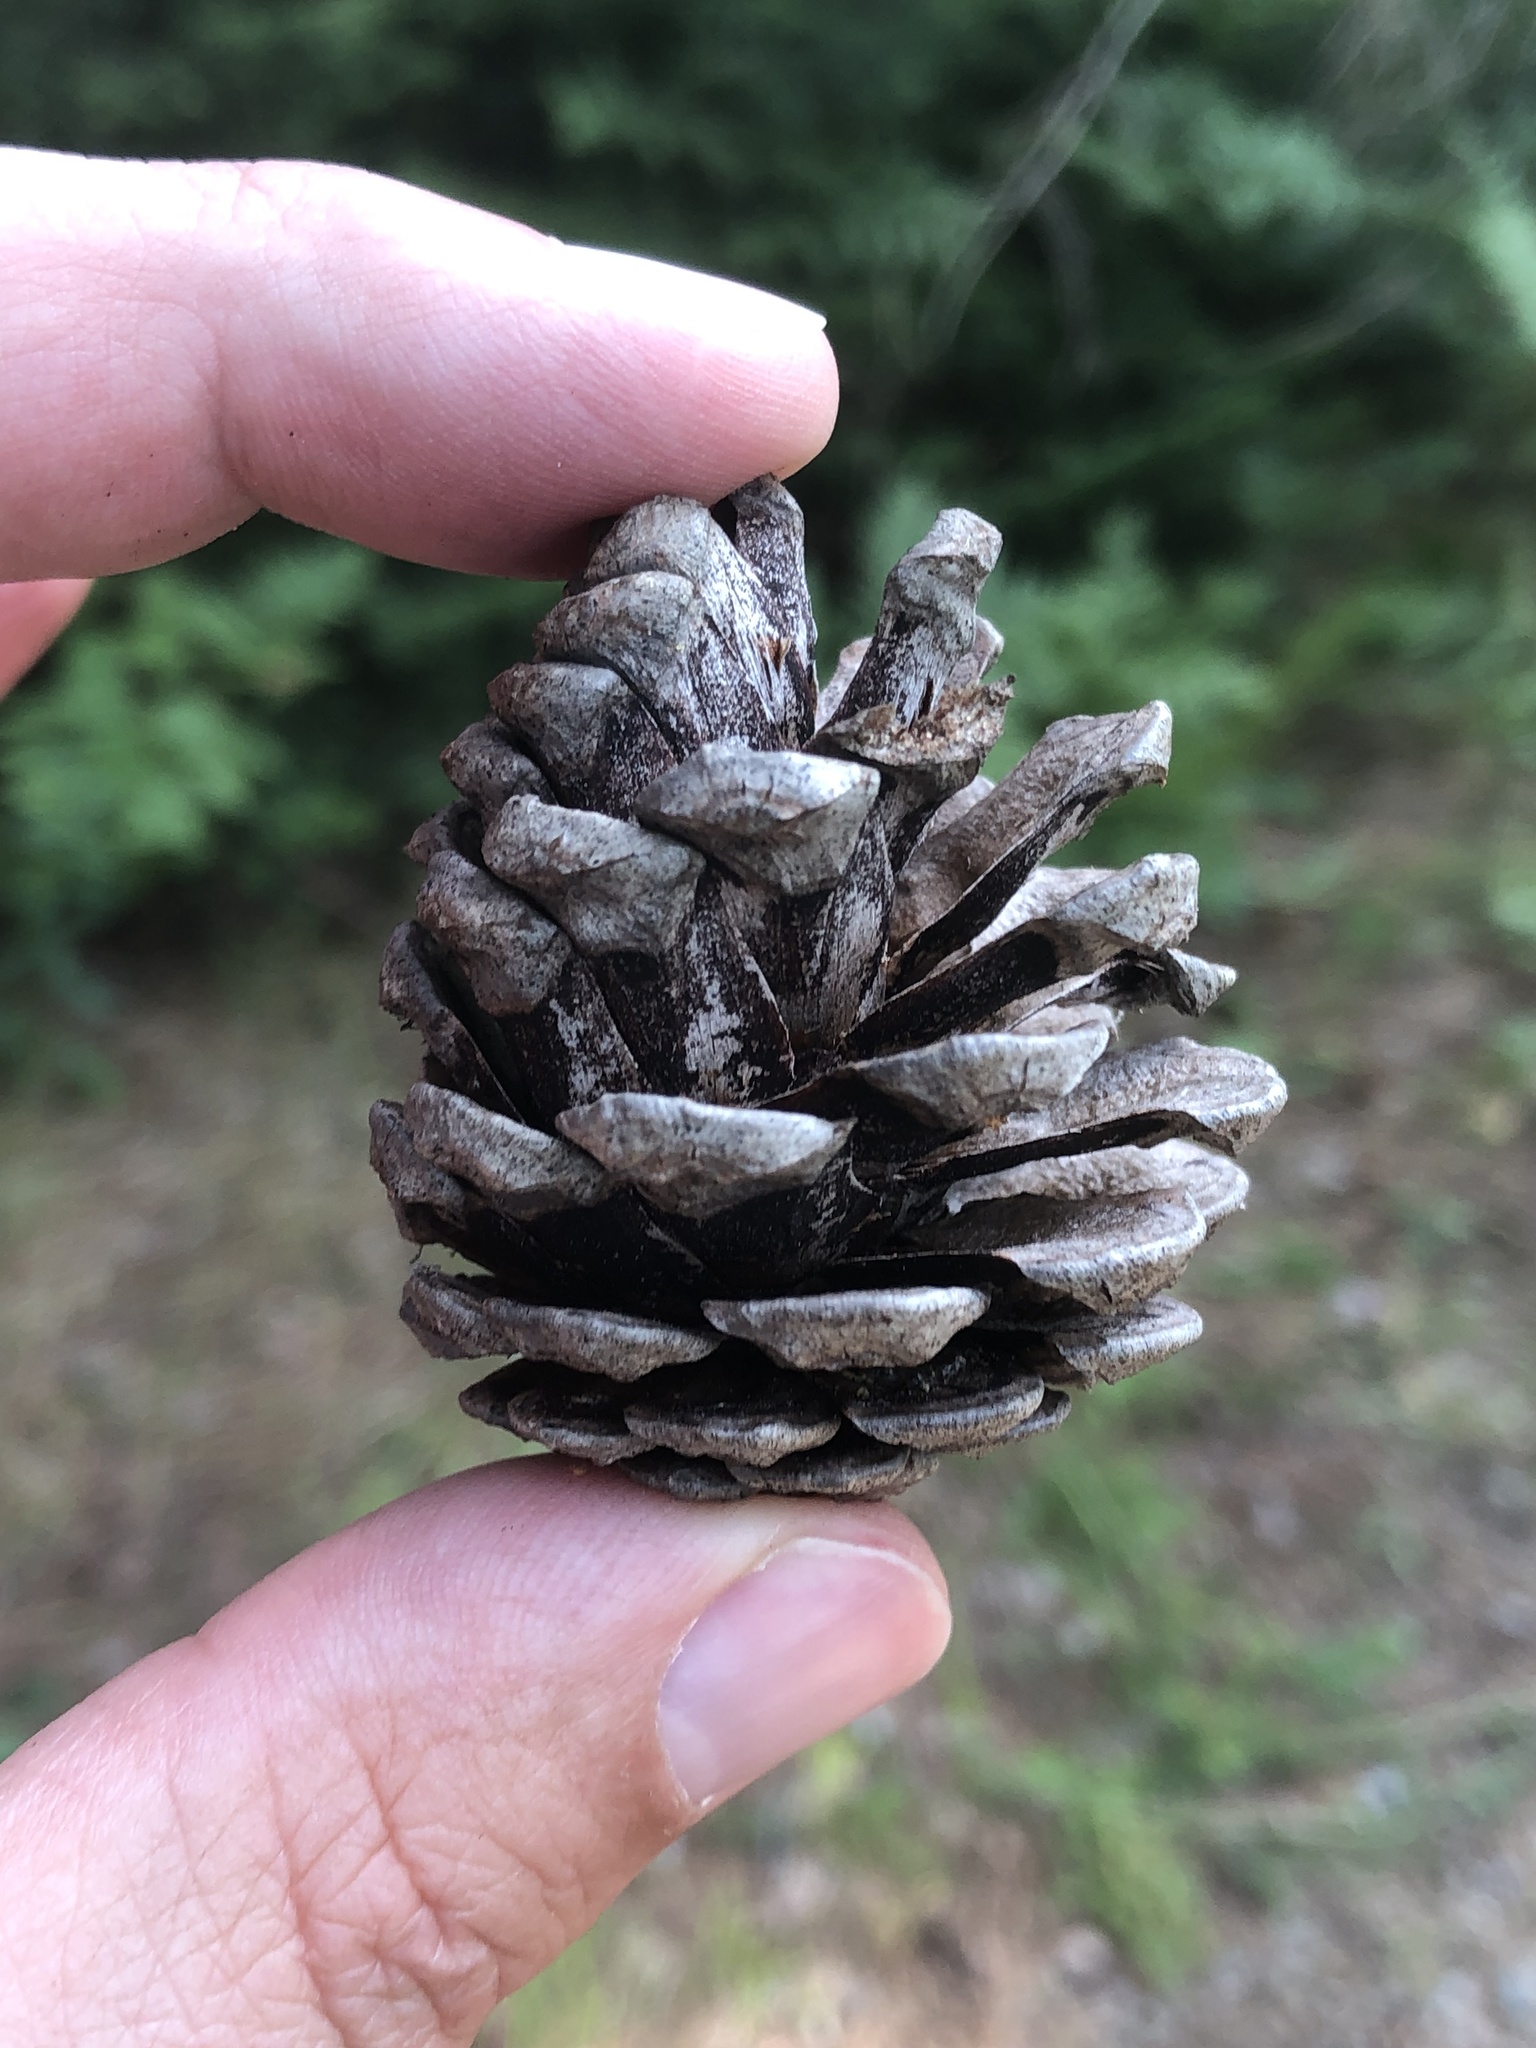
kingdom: Plantae
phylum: Tracheophyta
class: Pinopsida
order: Pinales
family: Pinaceae
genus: Pinus
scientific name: Pinus resinosa
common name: Norway pine
